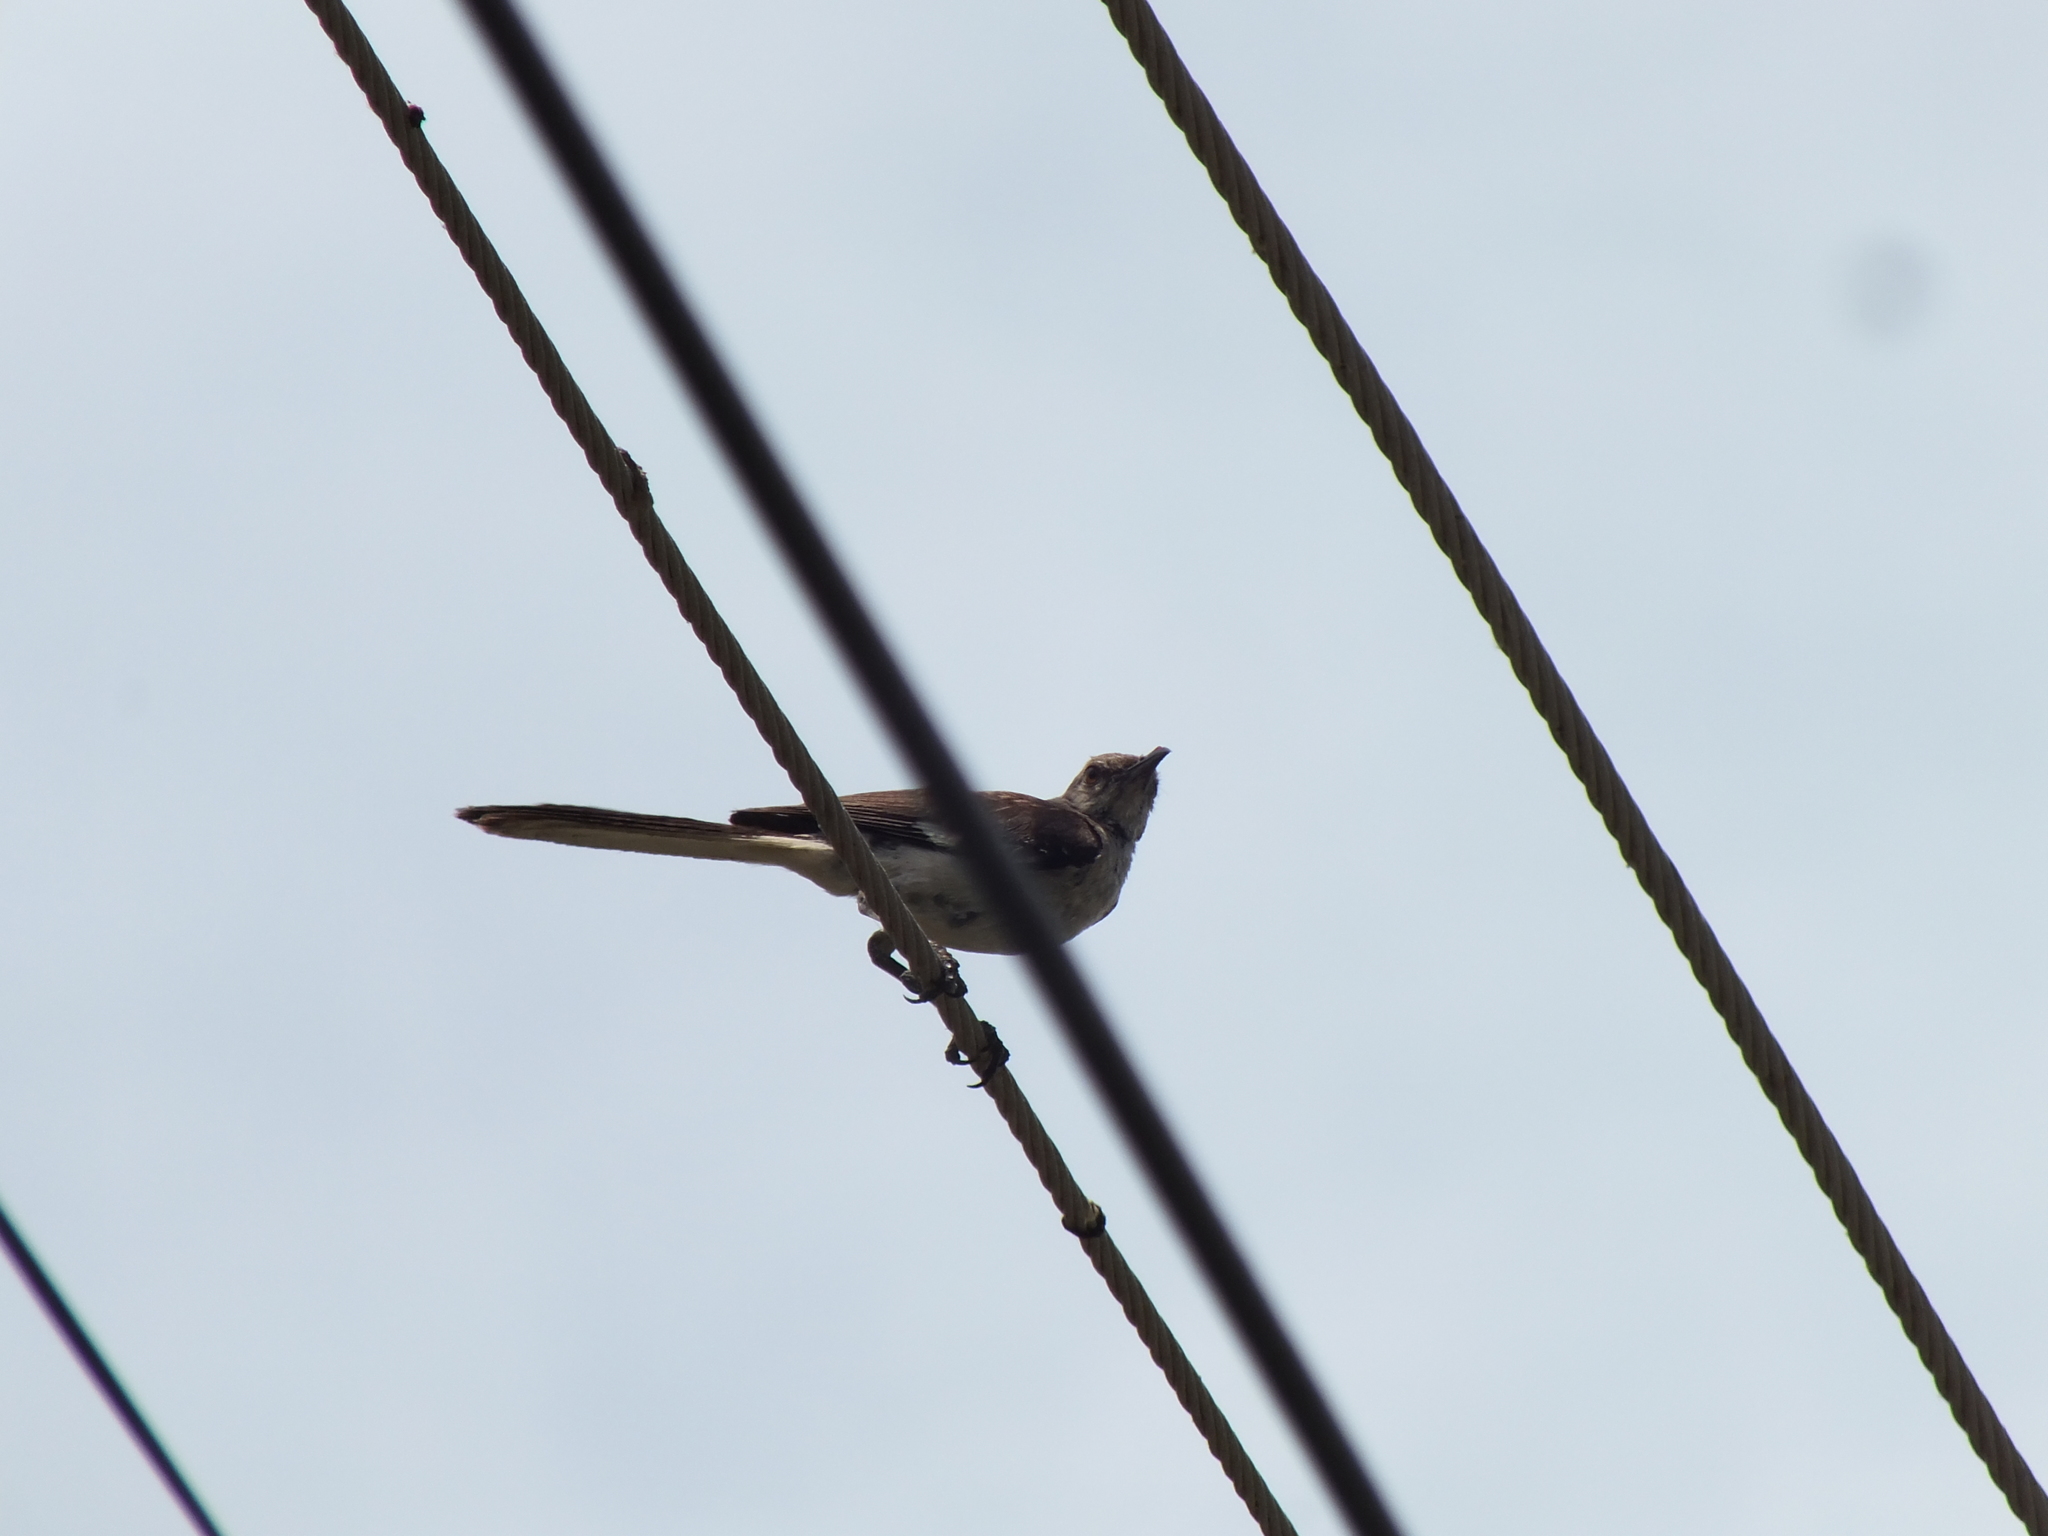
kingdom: Animalia
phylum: Chordata
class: Aves
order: Passeriformes
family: Mimidae
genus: Mimus
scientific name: Mimus polyglottos
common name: Northern mockingbird
